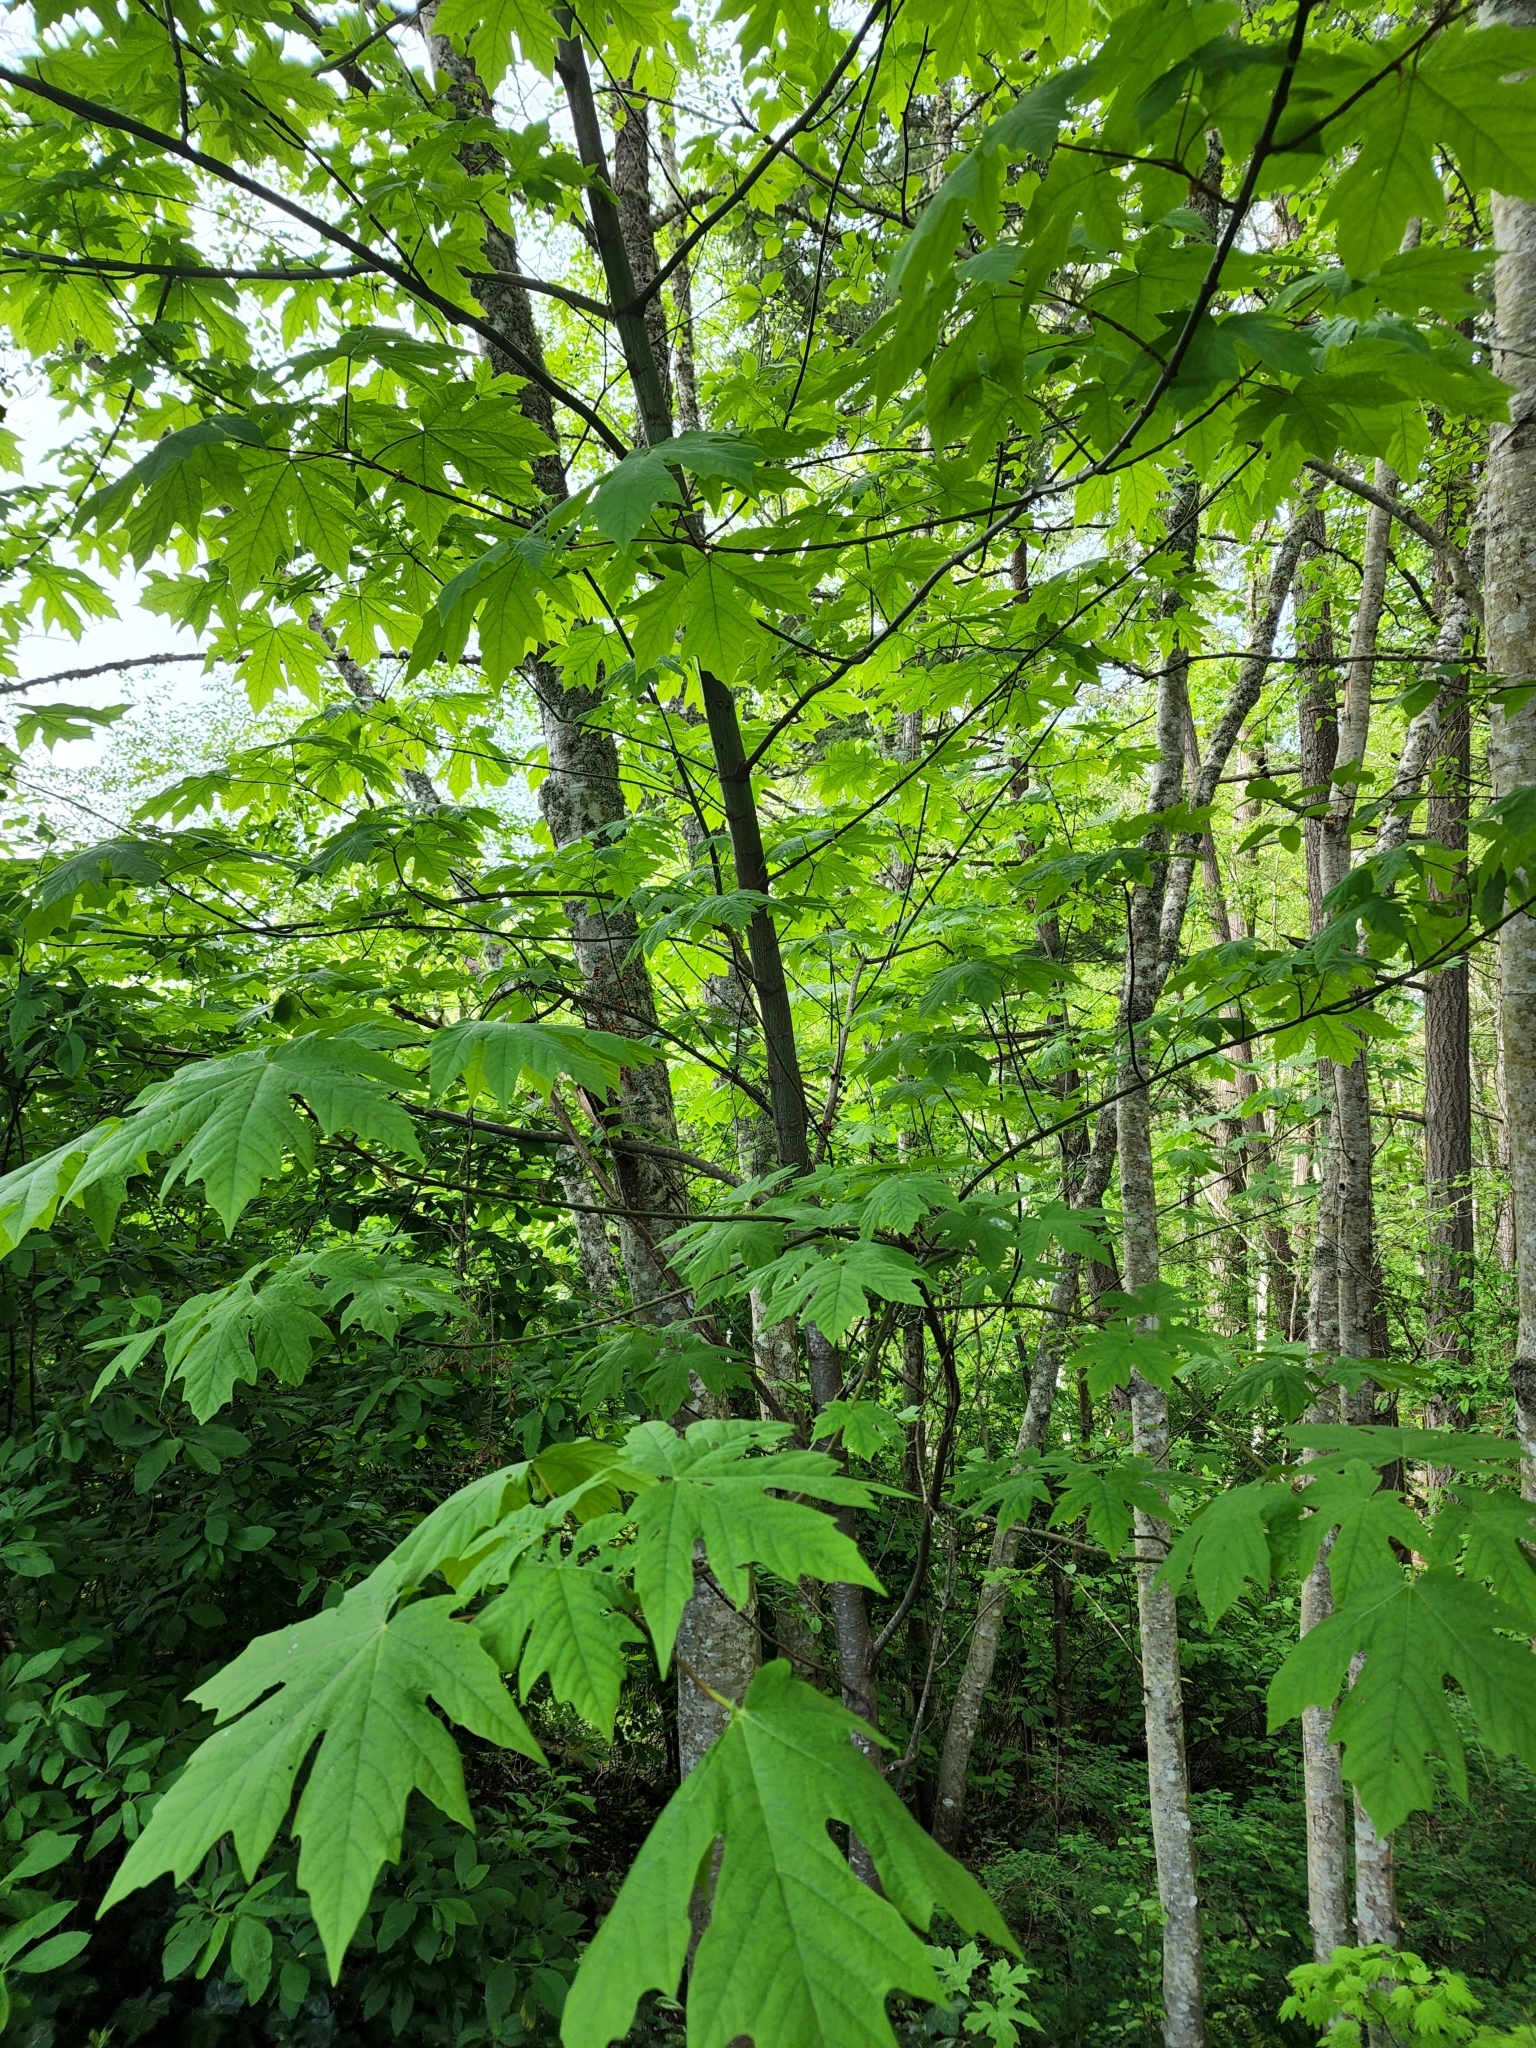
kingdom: Plantae
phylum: Tracheophyta
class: Magnoliopsida
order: Sapindales
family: Sapindaceae
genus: Acer
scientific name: Acer macrophyllum
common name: Oregon maple
